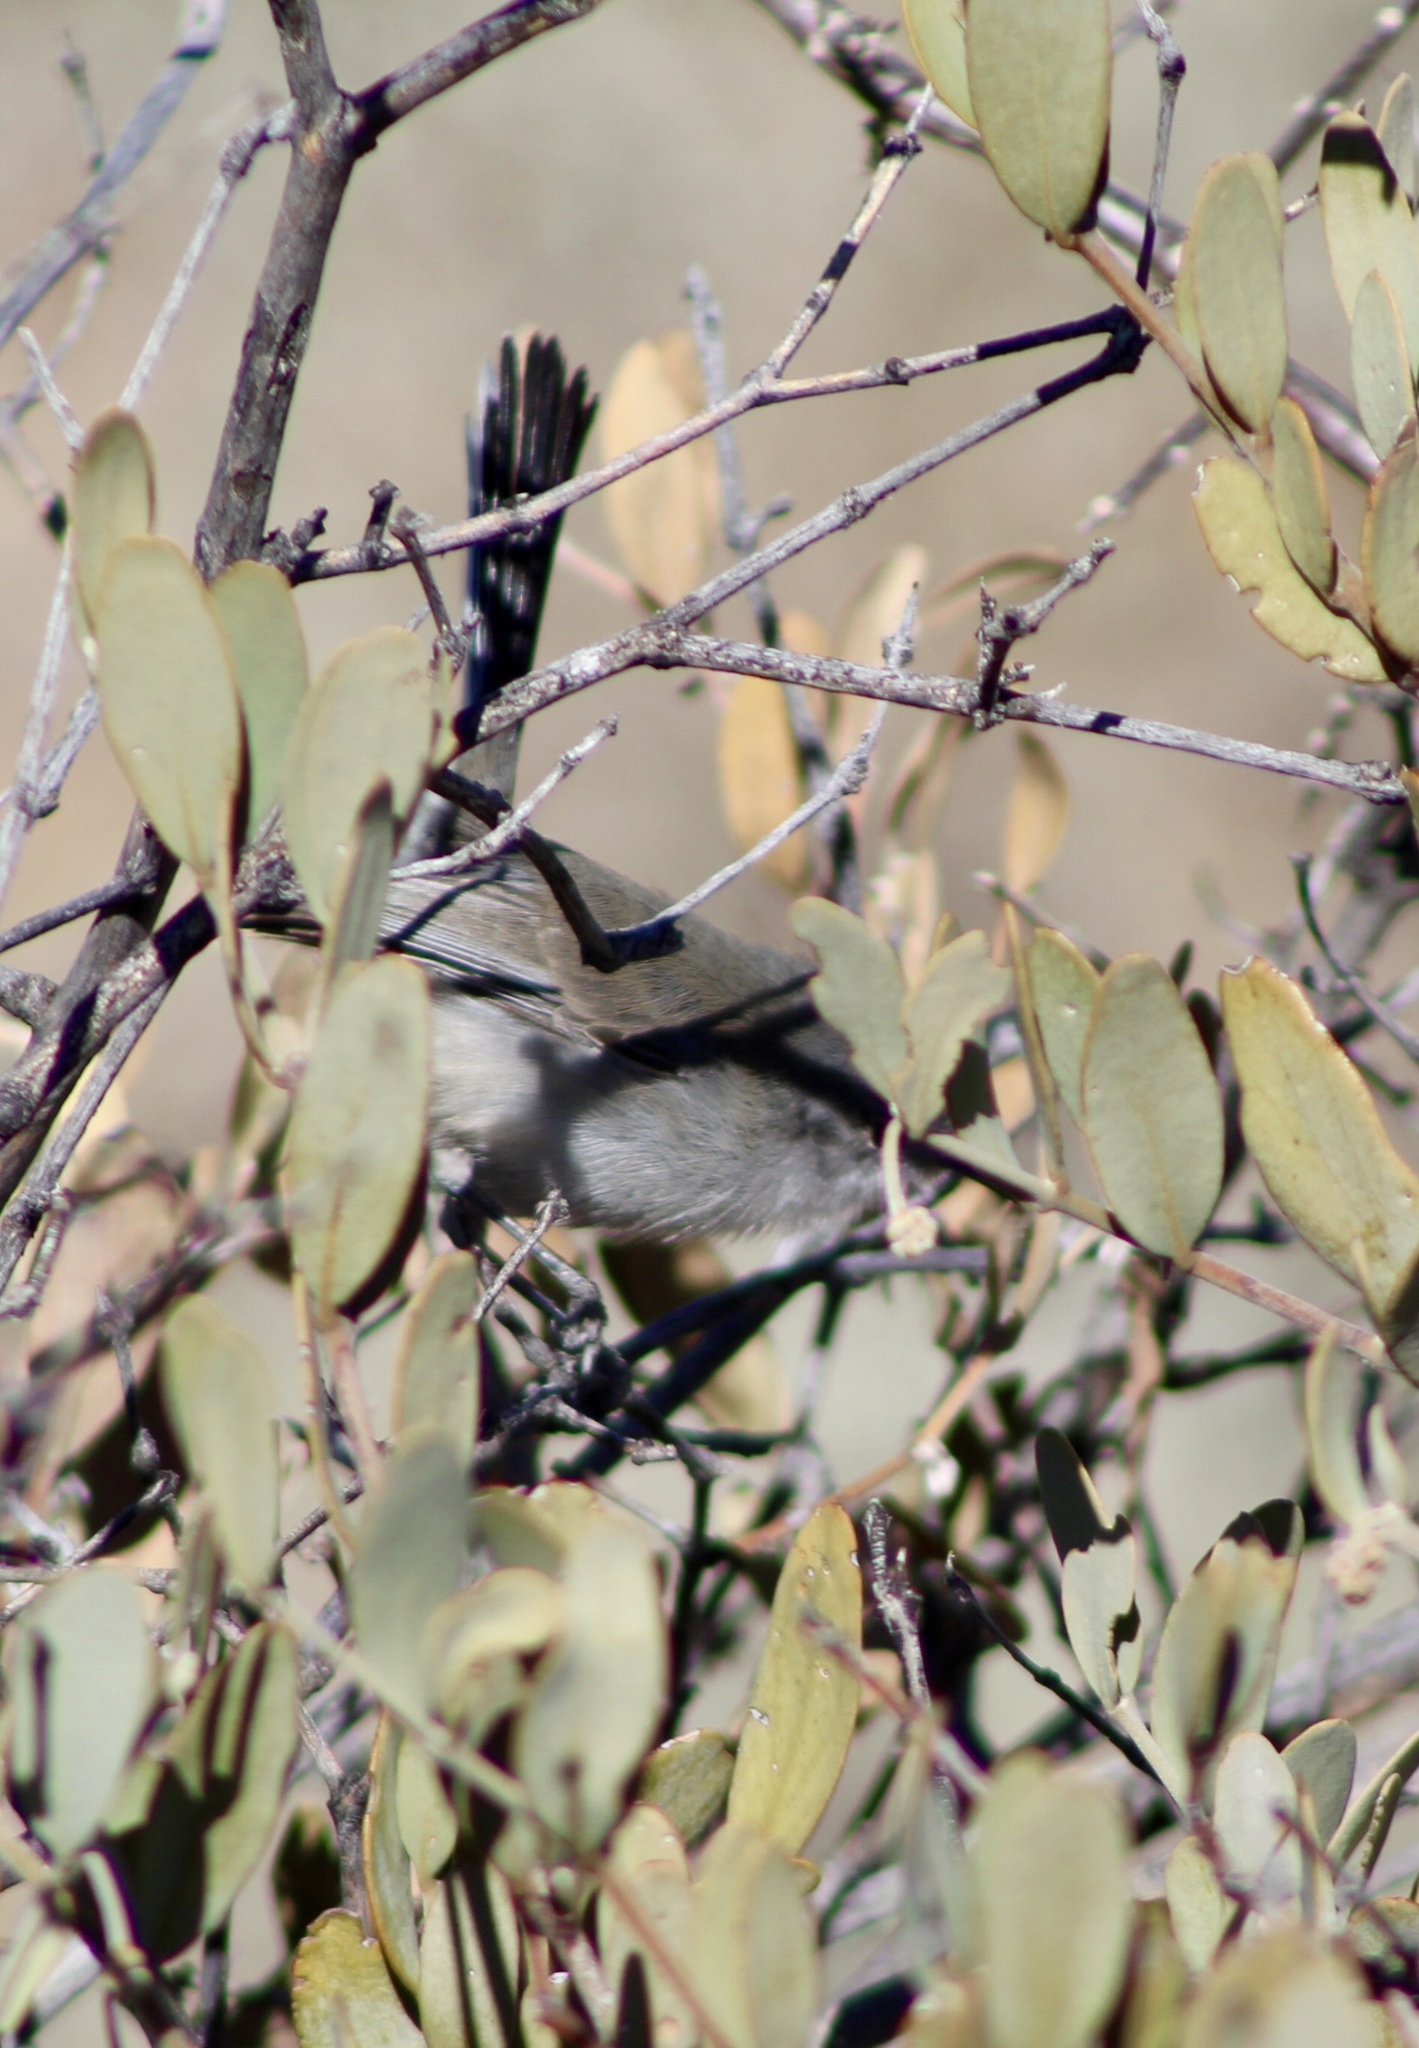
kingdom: Animalia
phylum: Chordata
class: Aves
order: Passeriformes
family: Polioptilidae
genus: Polioptila
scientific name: Polioptila melanura
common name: Black-tailed gnatcatcher
